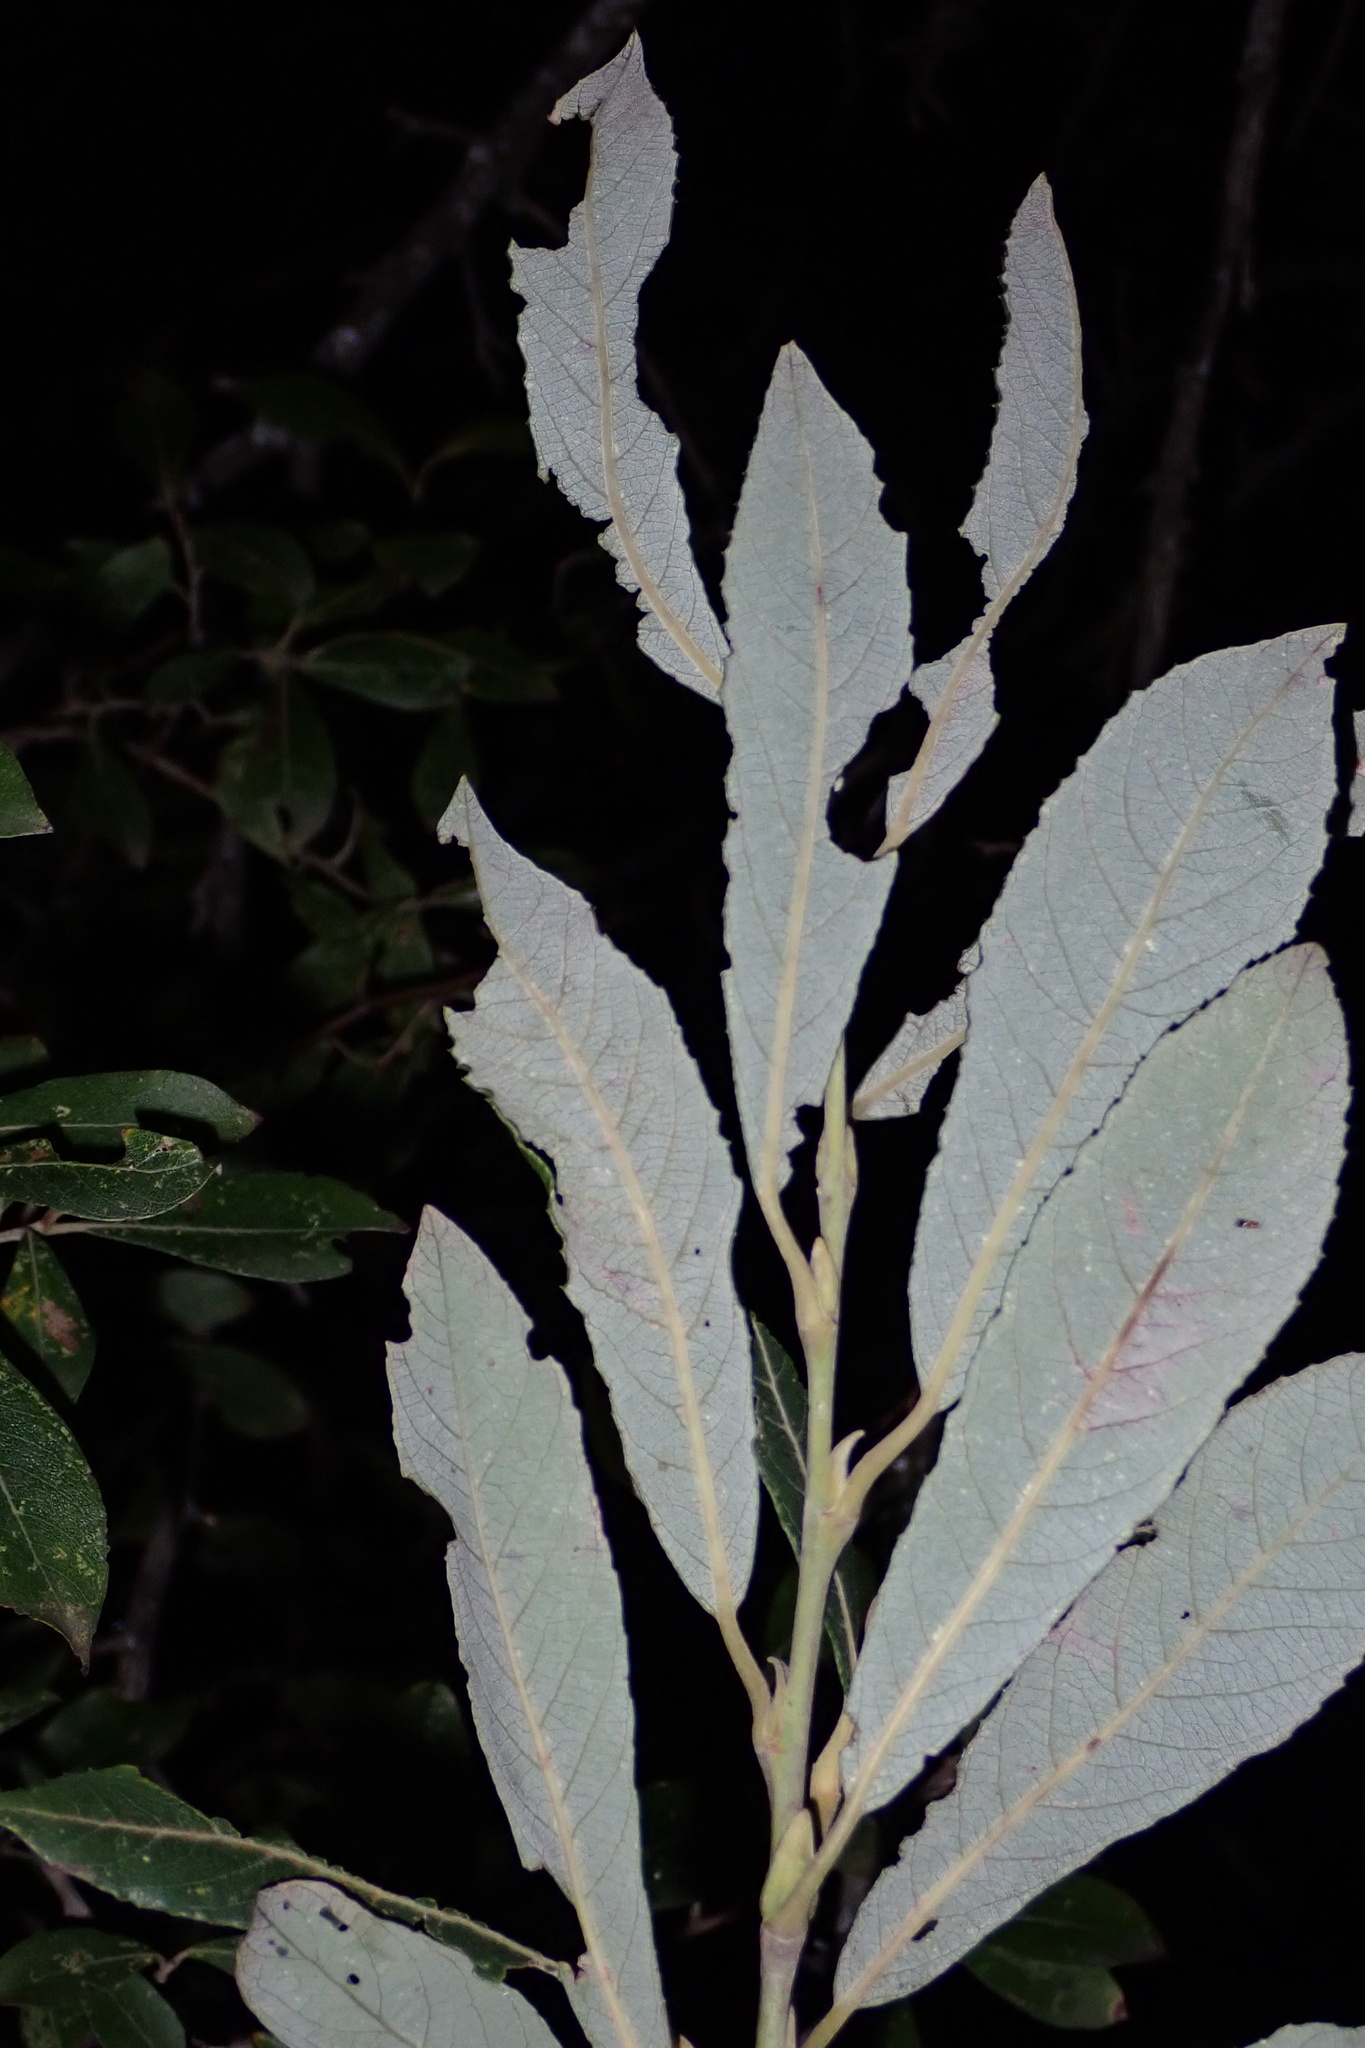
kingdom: Plantae
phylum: Tracheophyta
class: Magnoliopsida
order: Malpighiales
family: Salicaceae
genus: Salix
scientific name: Salix atrocinerea
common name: Rusty willow
